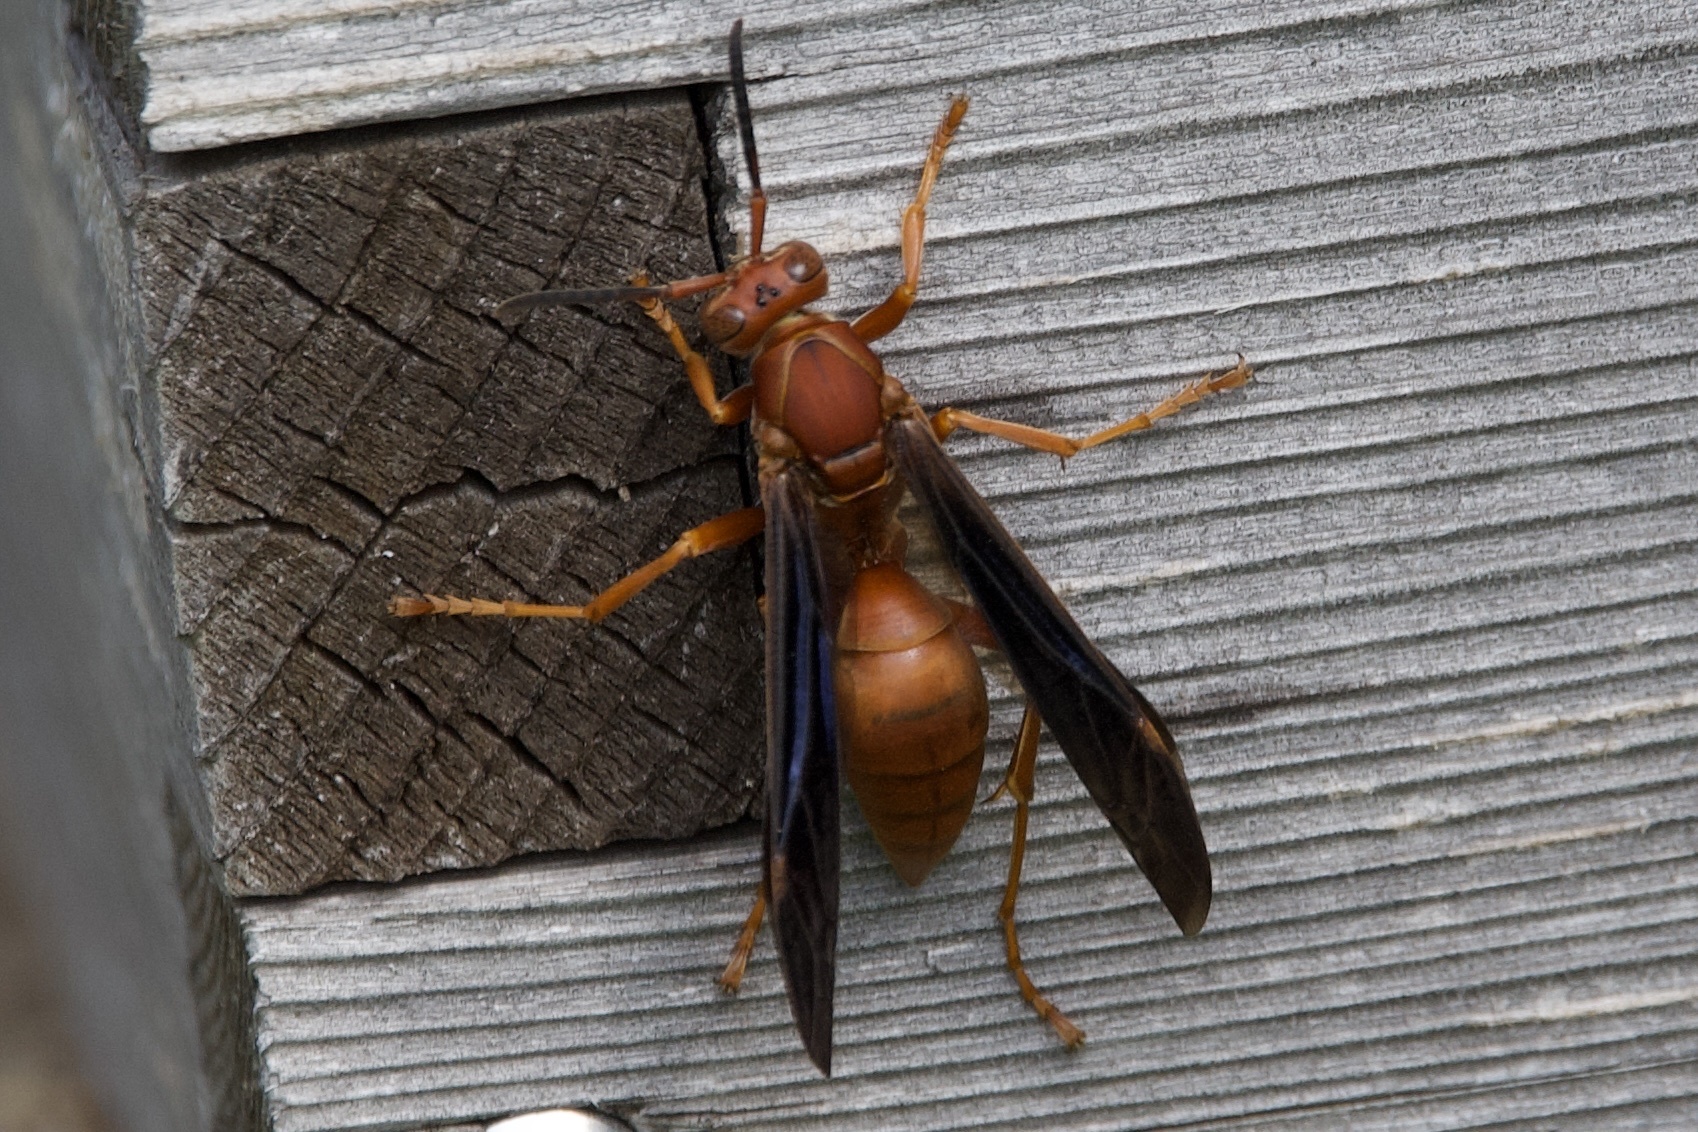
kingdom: Animalia
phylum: Arthropoda
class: Insecta
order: Hymenoptera
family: Eumenidae
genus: Polistes
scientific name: Polistes carolina
